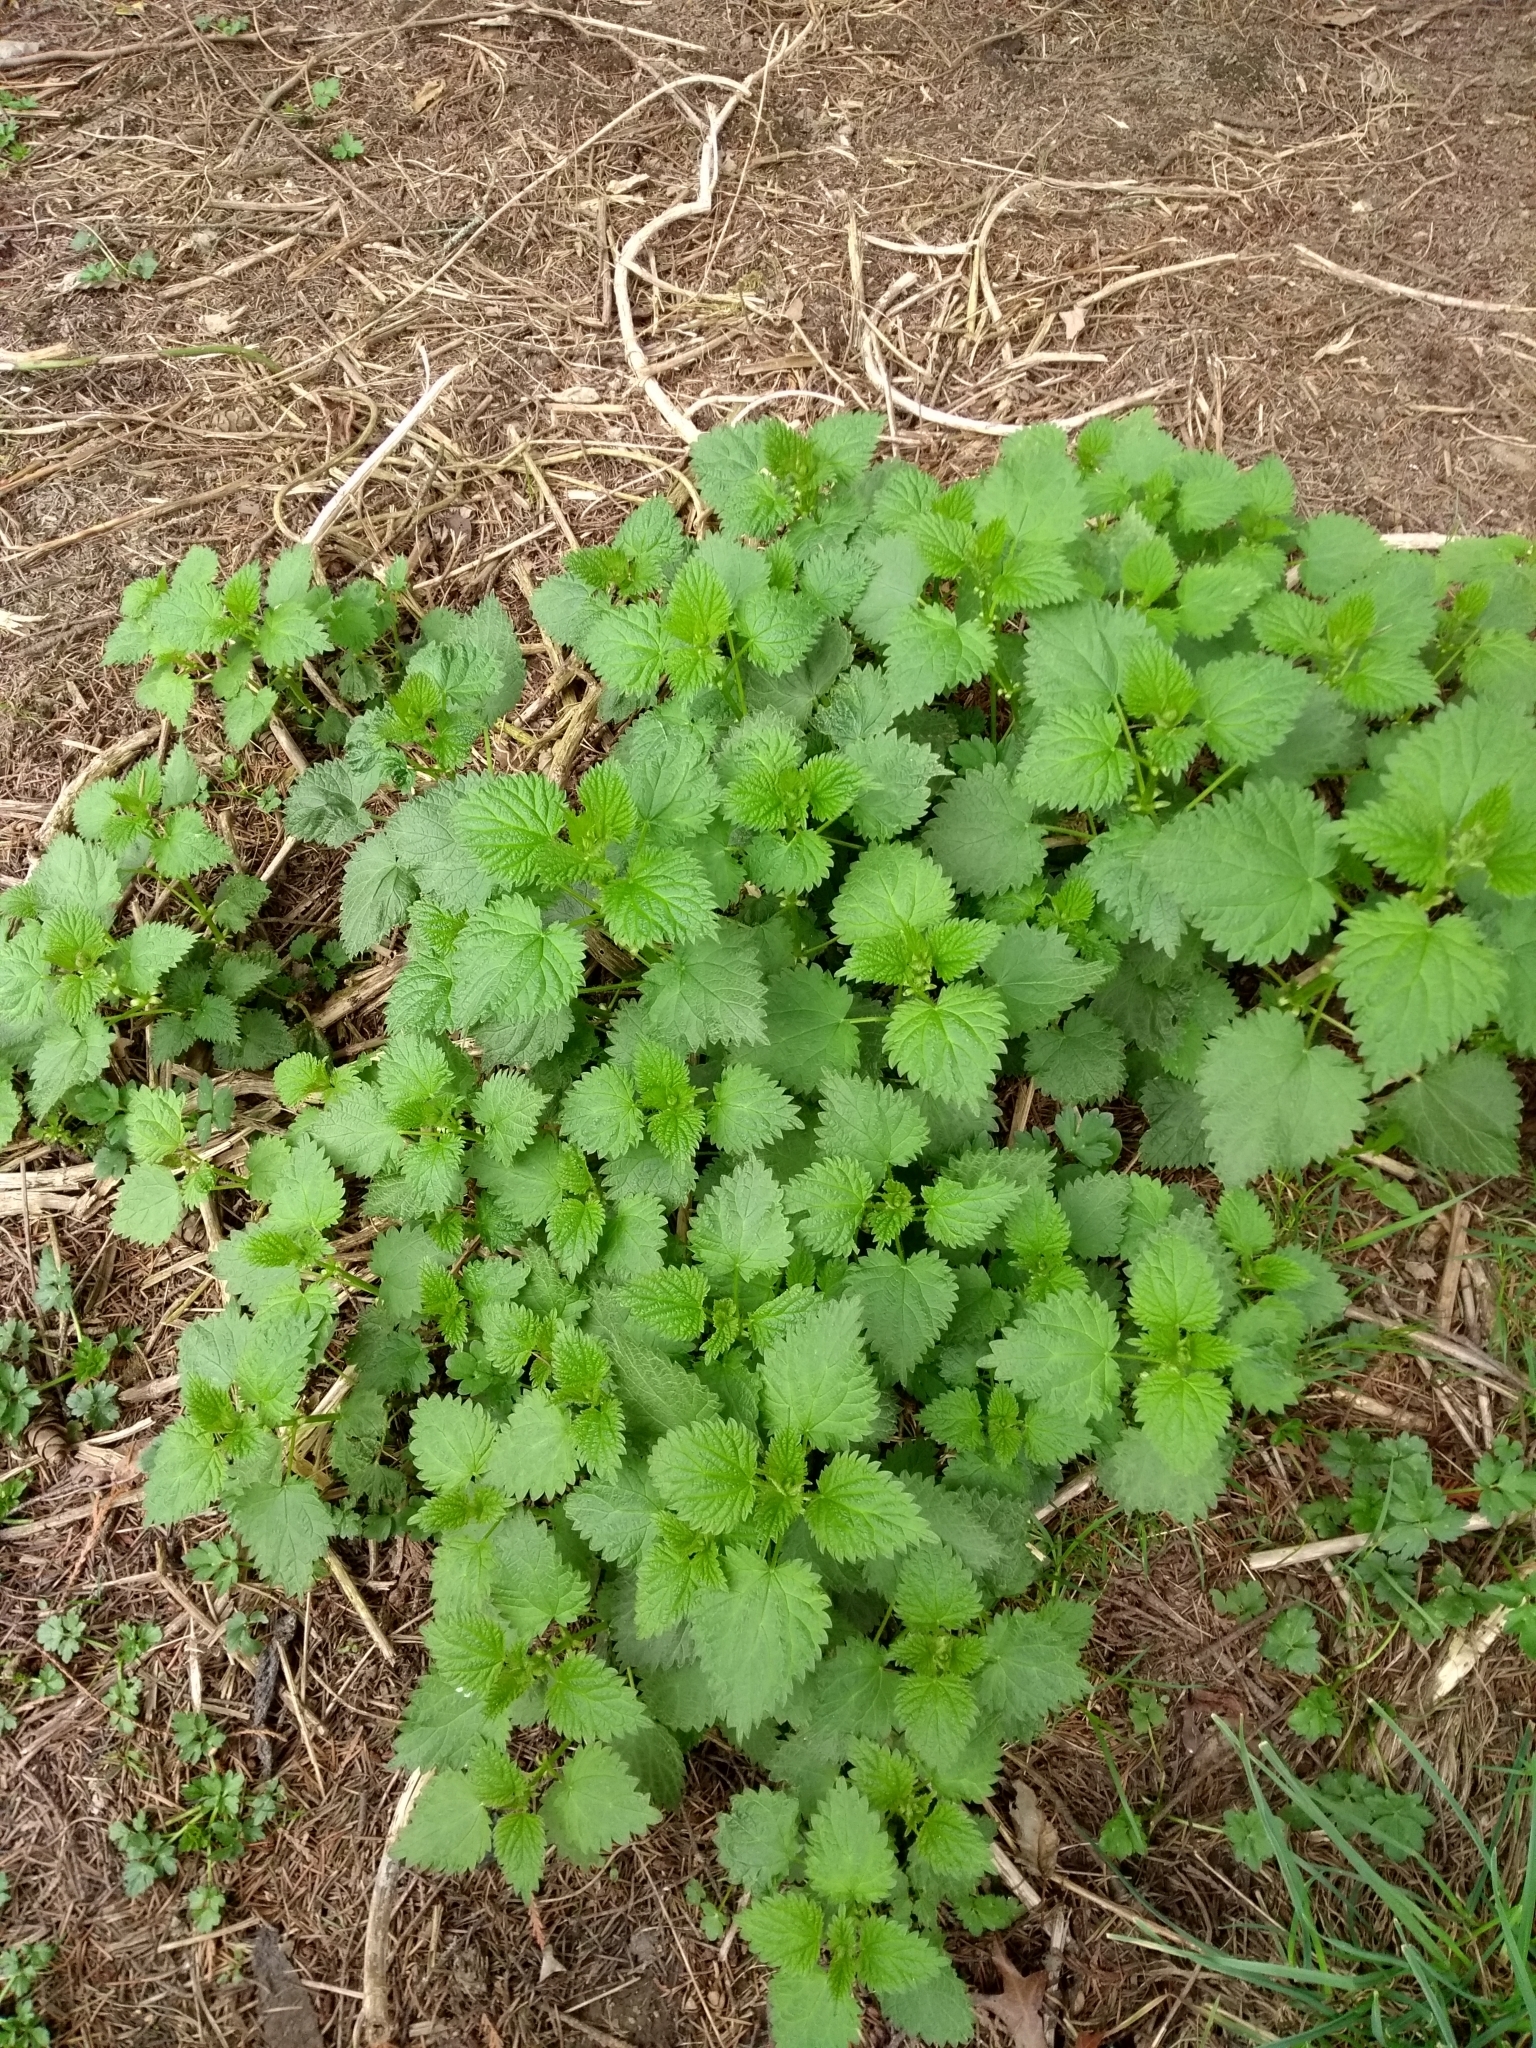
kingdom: Plantae
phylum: Tracheophyta
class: Magnoliopsida
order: Rosales
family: Urticaceae
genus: Urtica
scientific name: Urtica dioica
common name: Common nettle
